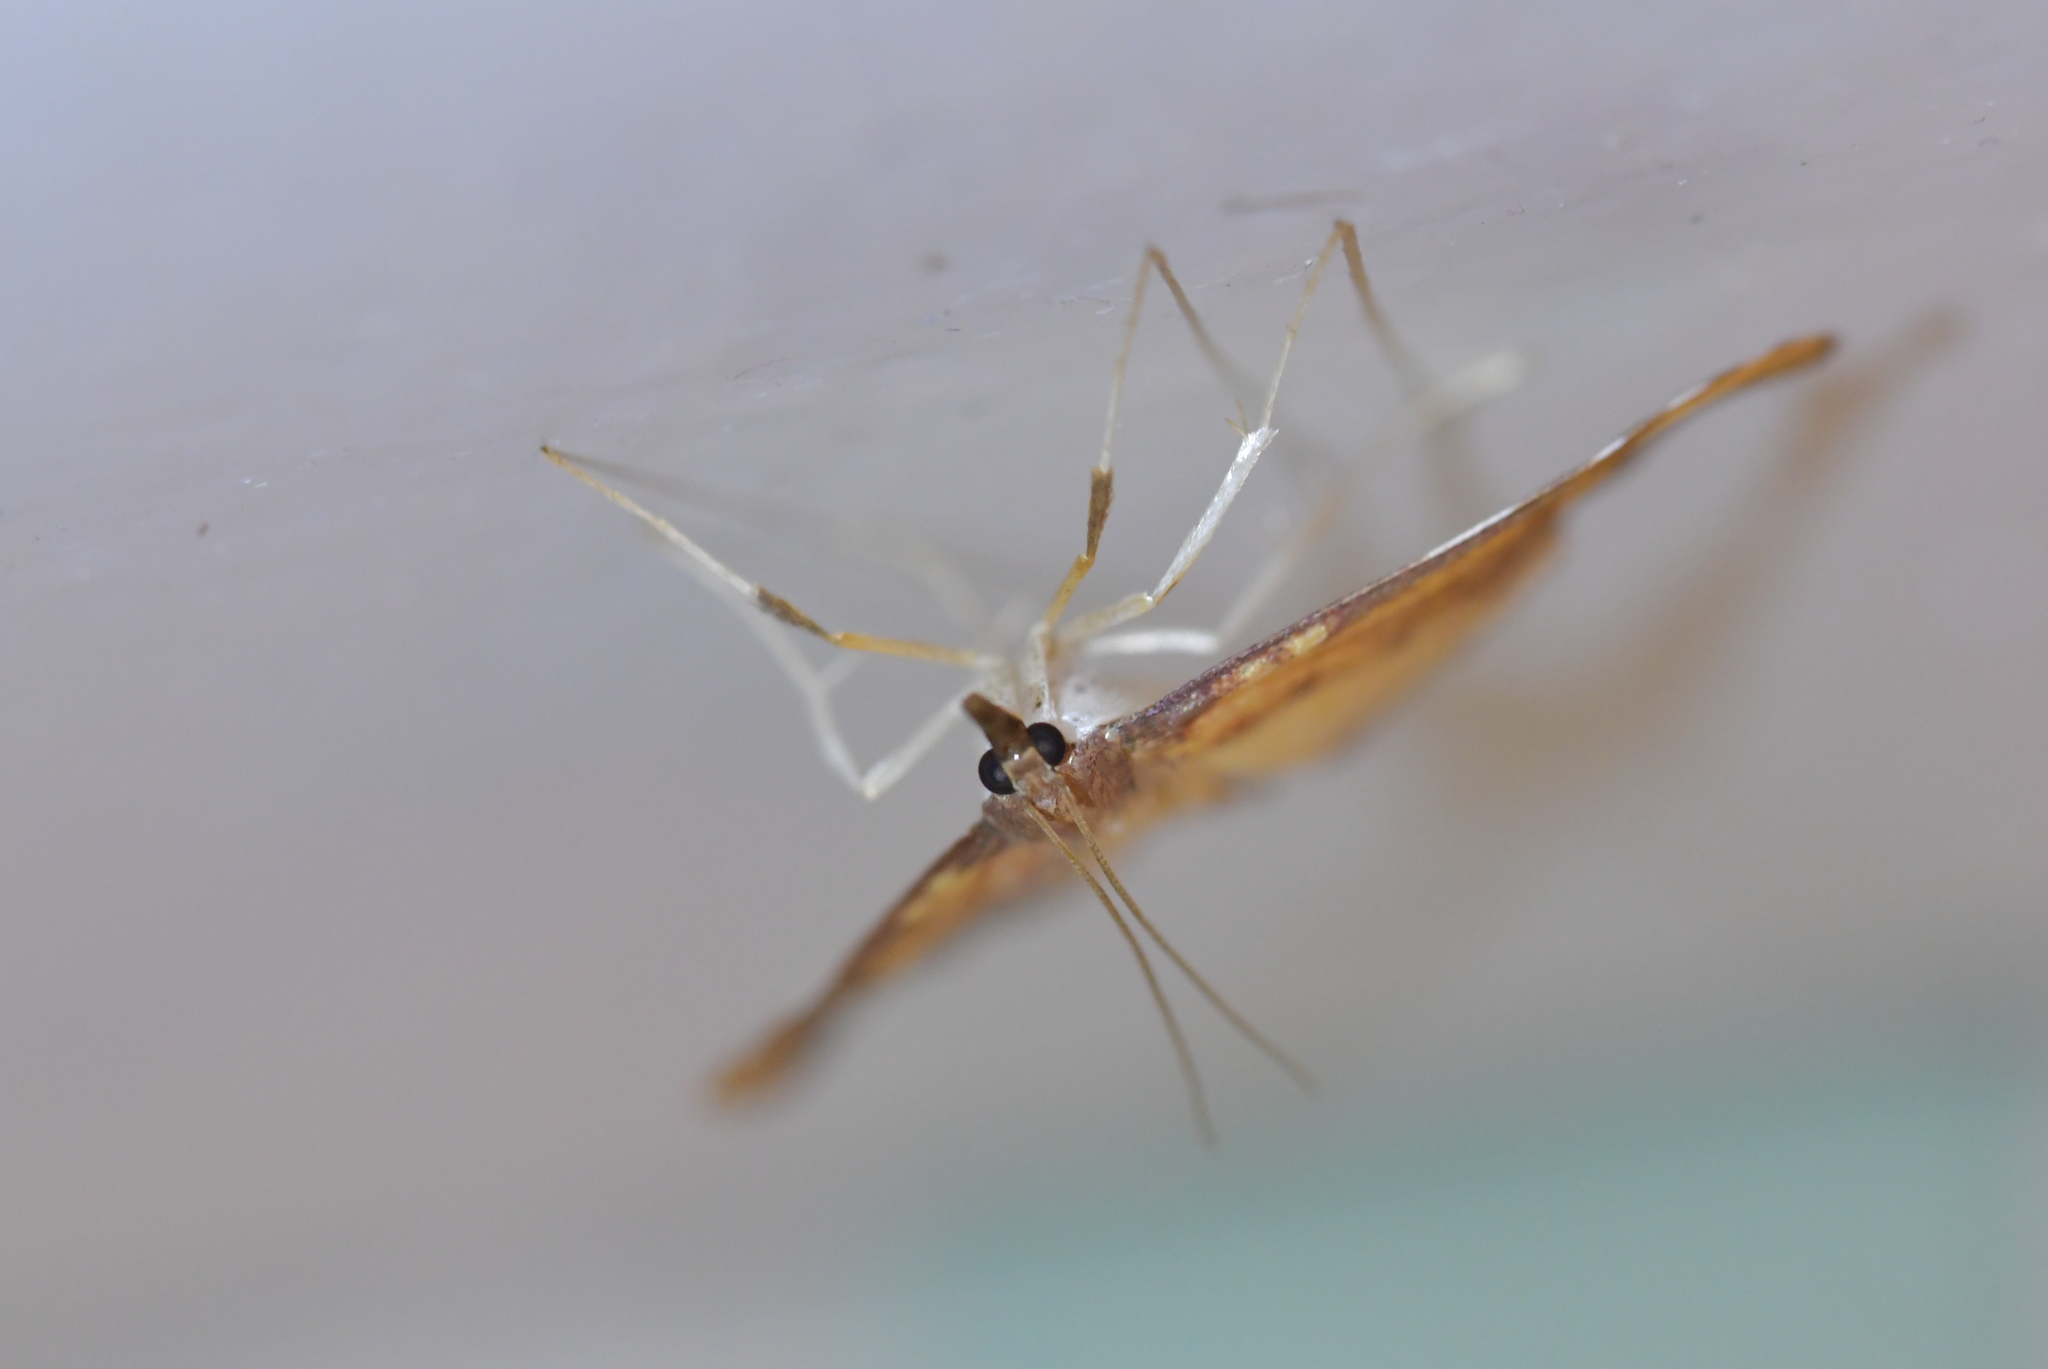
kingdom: Animalia
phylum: Arthropoda
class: Insecta
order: Lepidoptera
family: Crambidae
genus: Deana
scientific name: Deana hybreasalis
